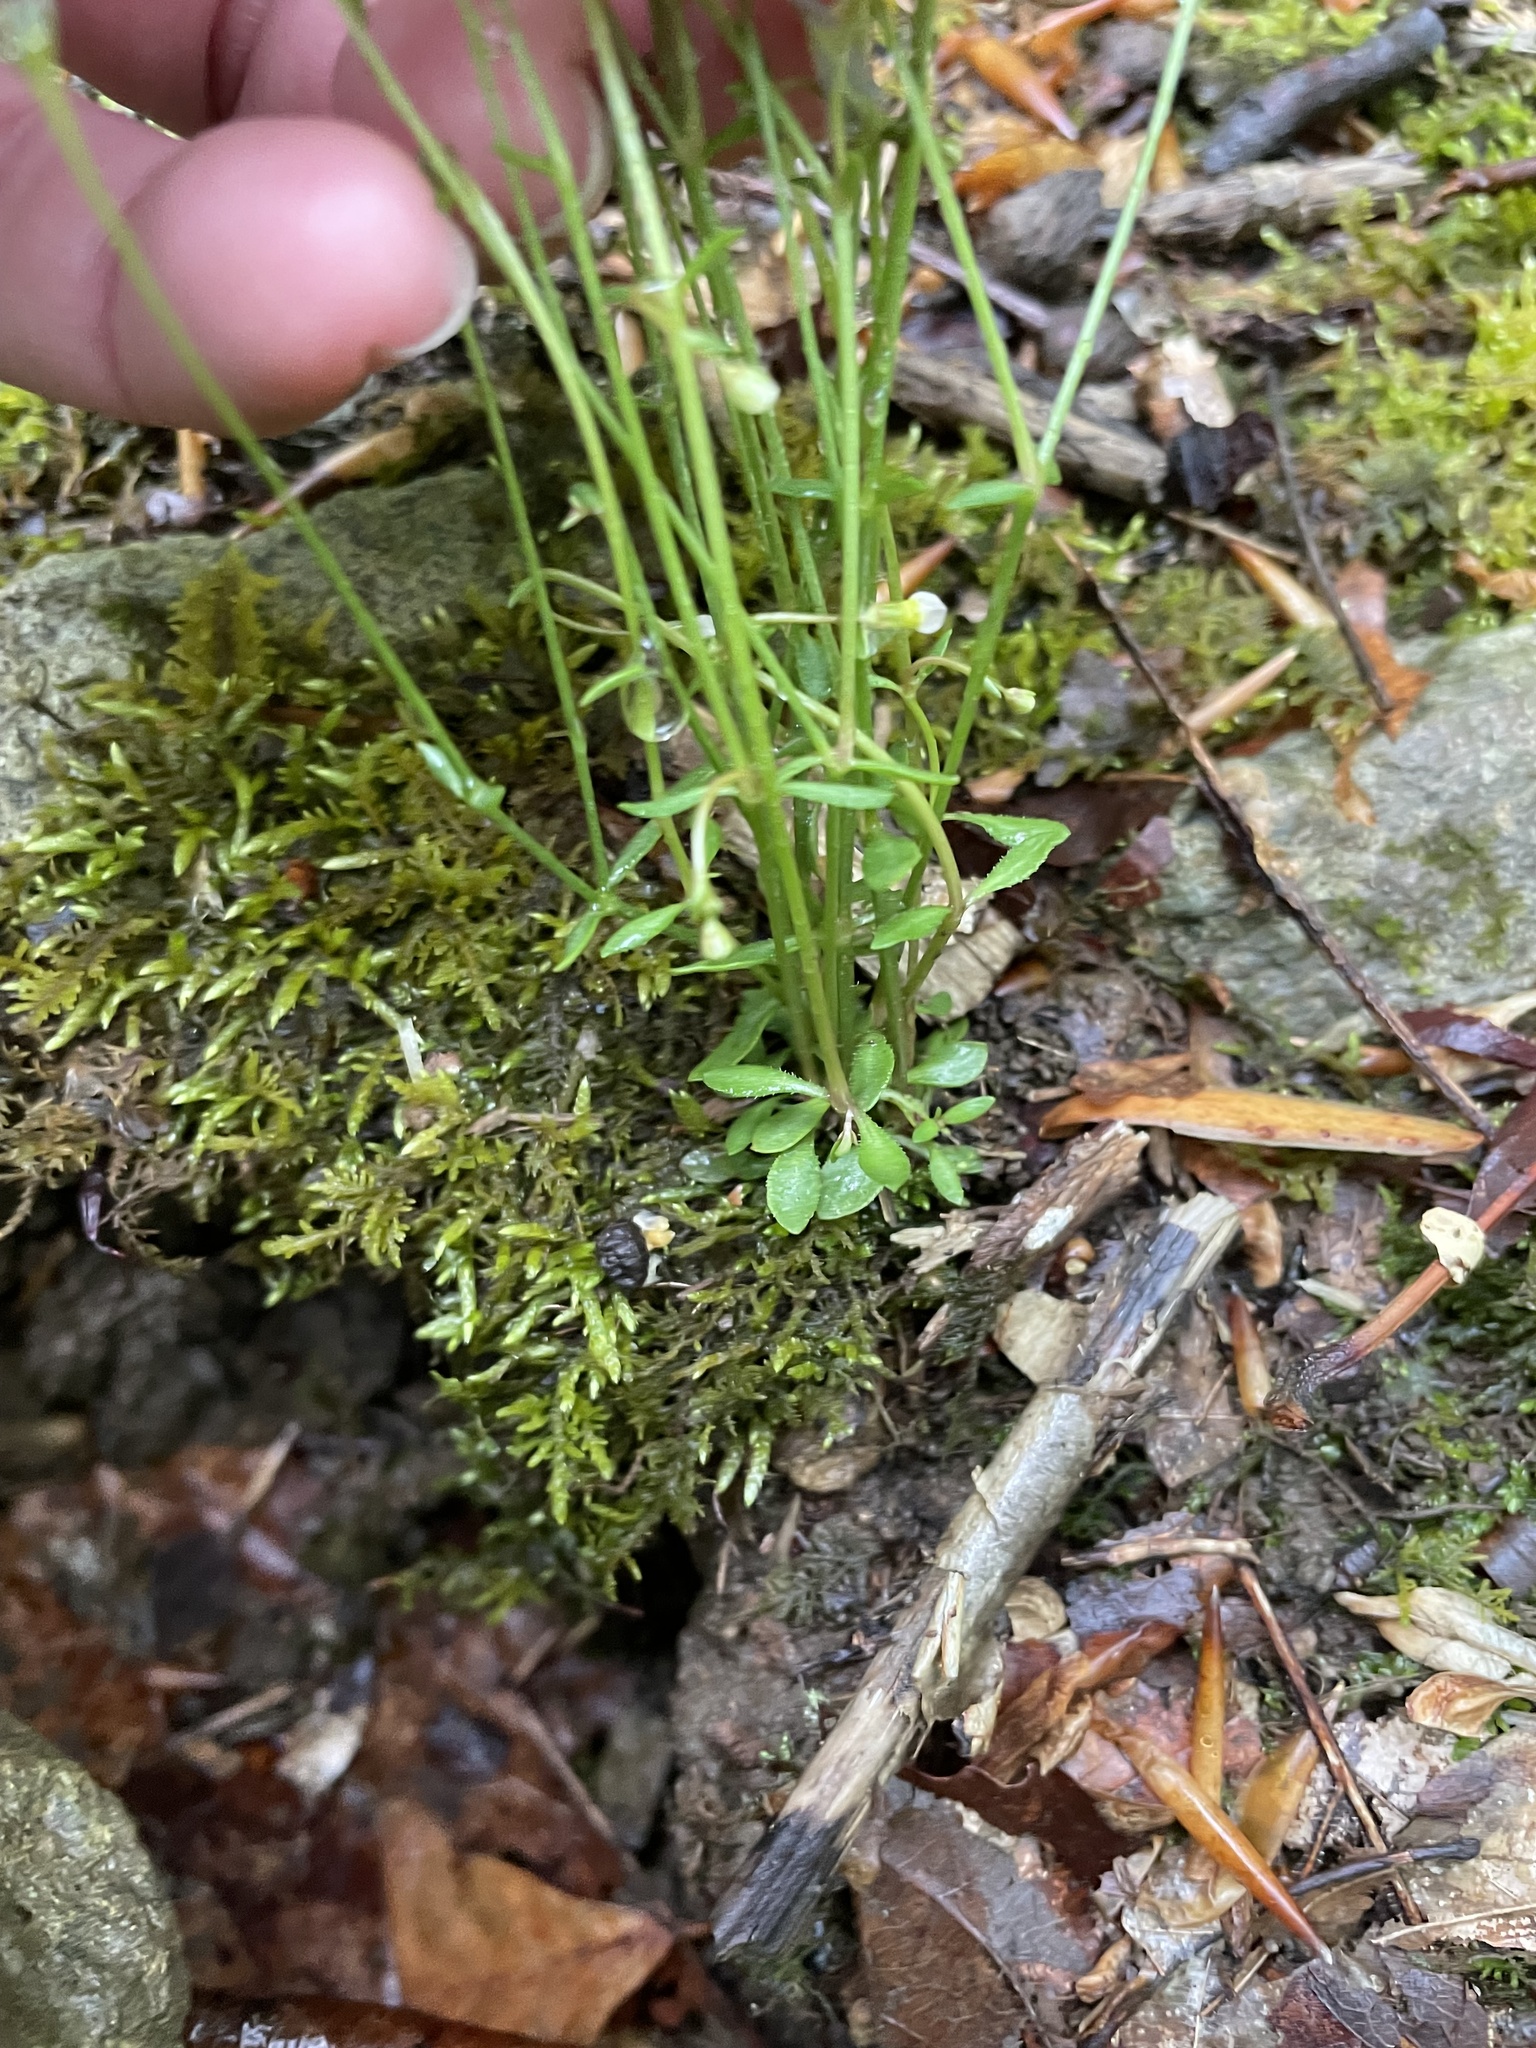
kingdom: Plantae
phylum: Tracheophyta
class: Magnoliopsida
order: Gentianales
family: Rubiaceae
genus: Houstonia
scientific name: Houstonia caerulea
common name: Bluets
